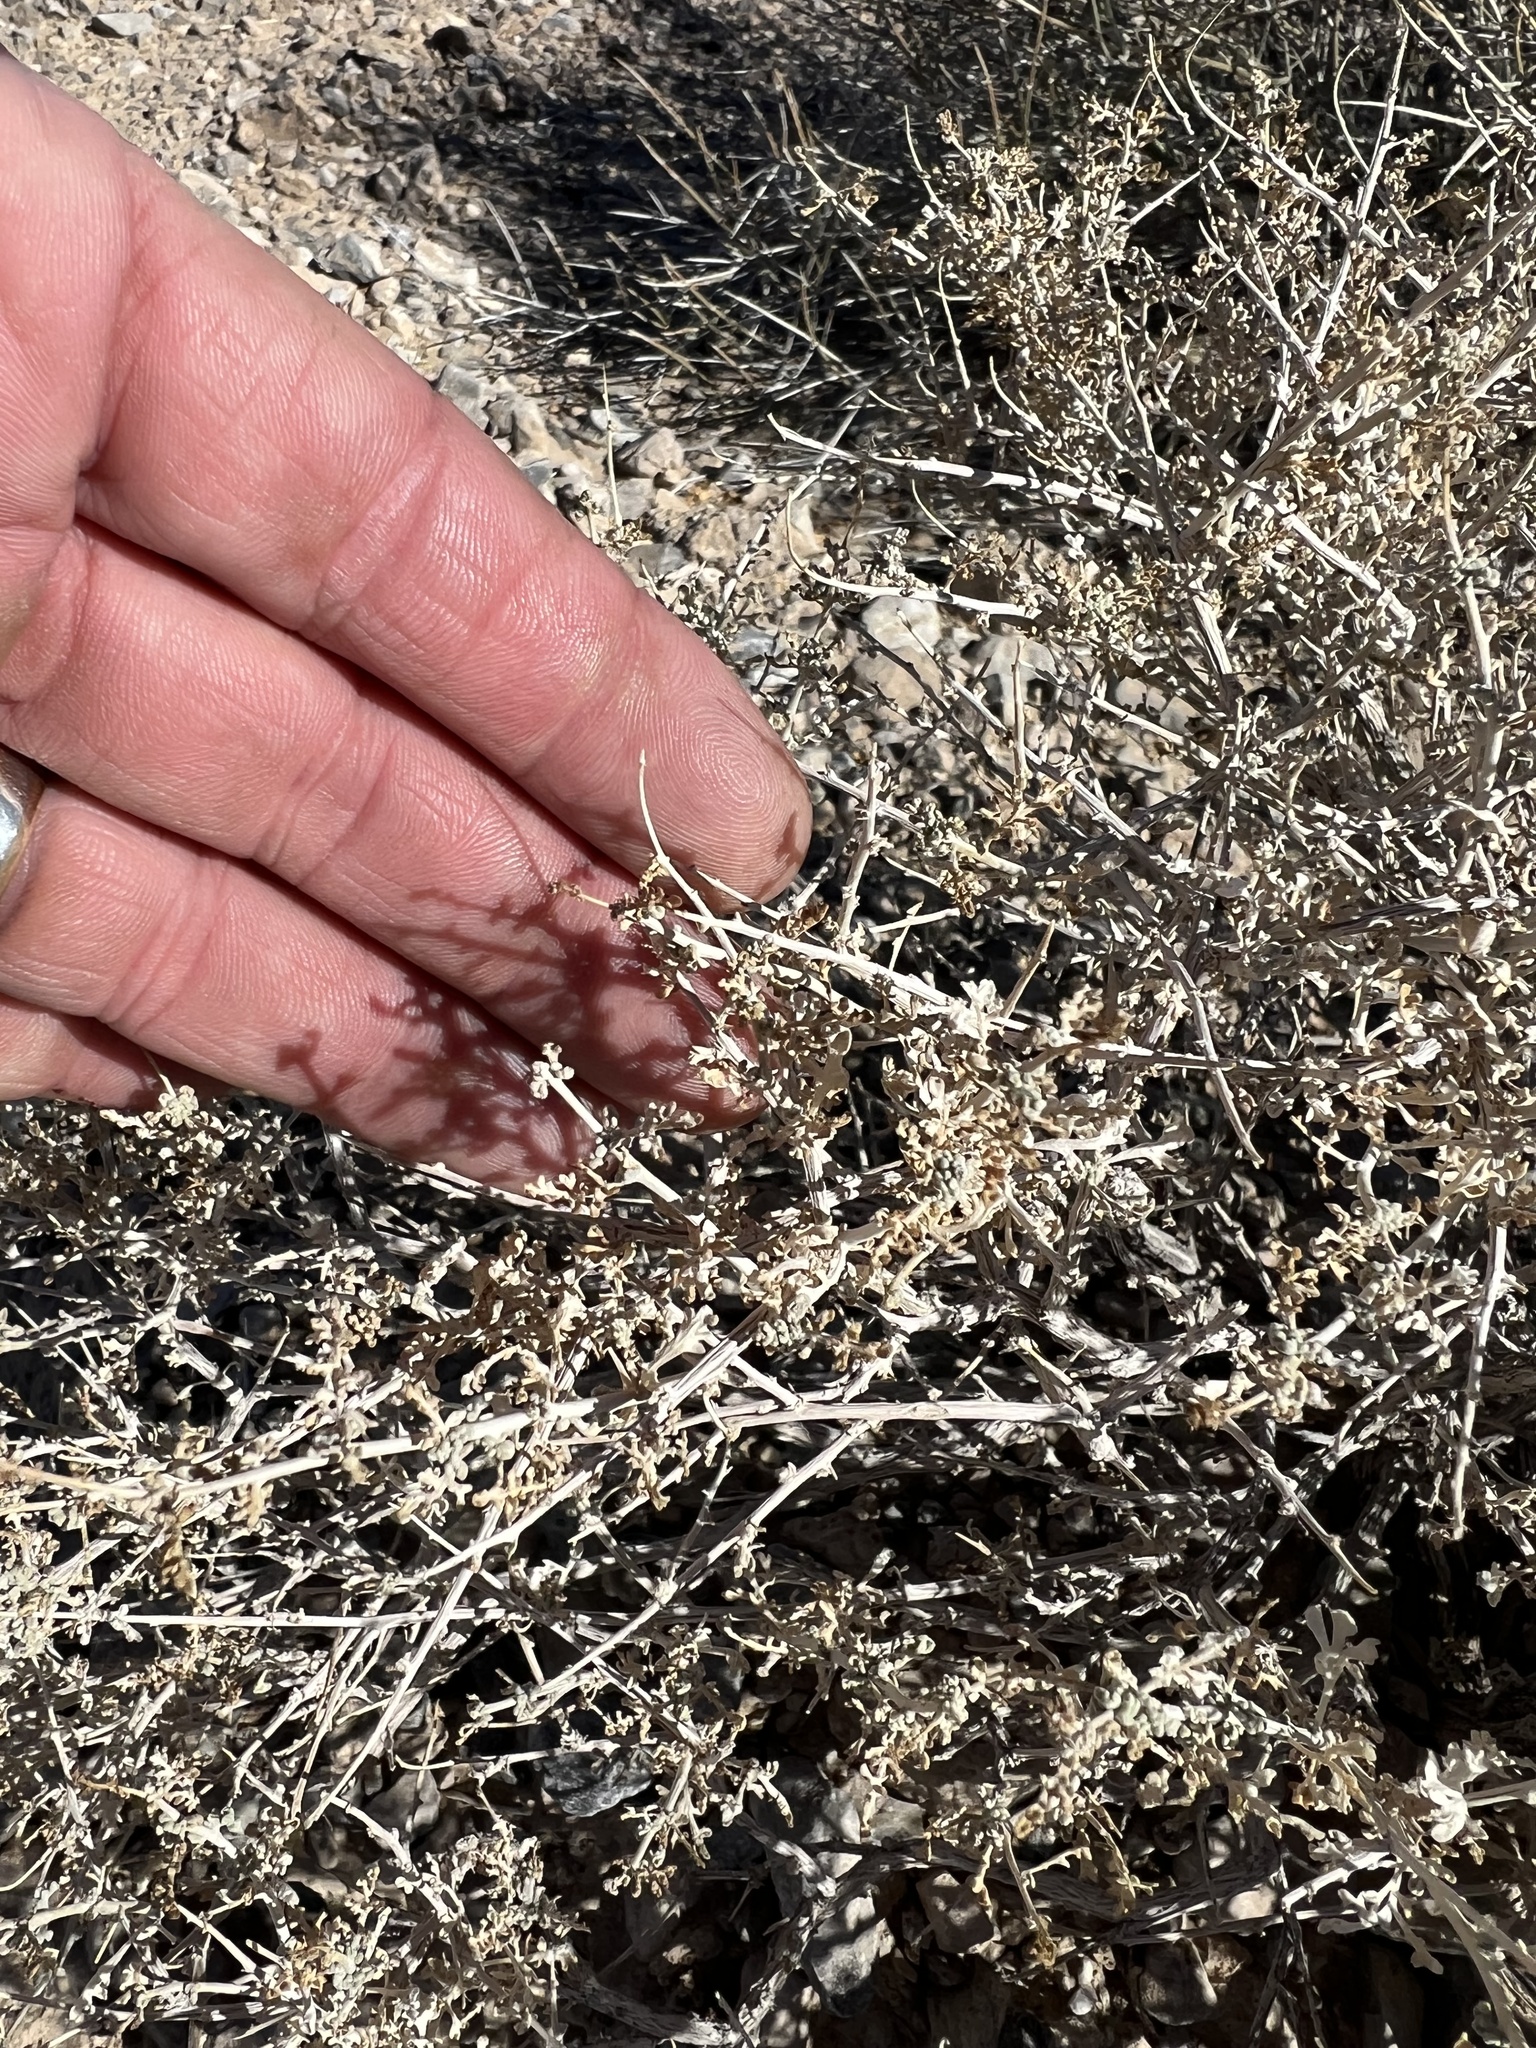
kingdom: Plantae
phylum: Tracheophyta
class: Magnoliopsida
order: Asterales
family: Asteraceae
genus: Ambrosia
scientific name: Ambrosia dumosa
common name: Bur-sage
